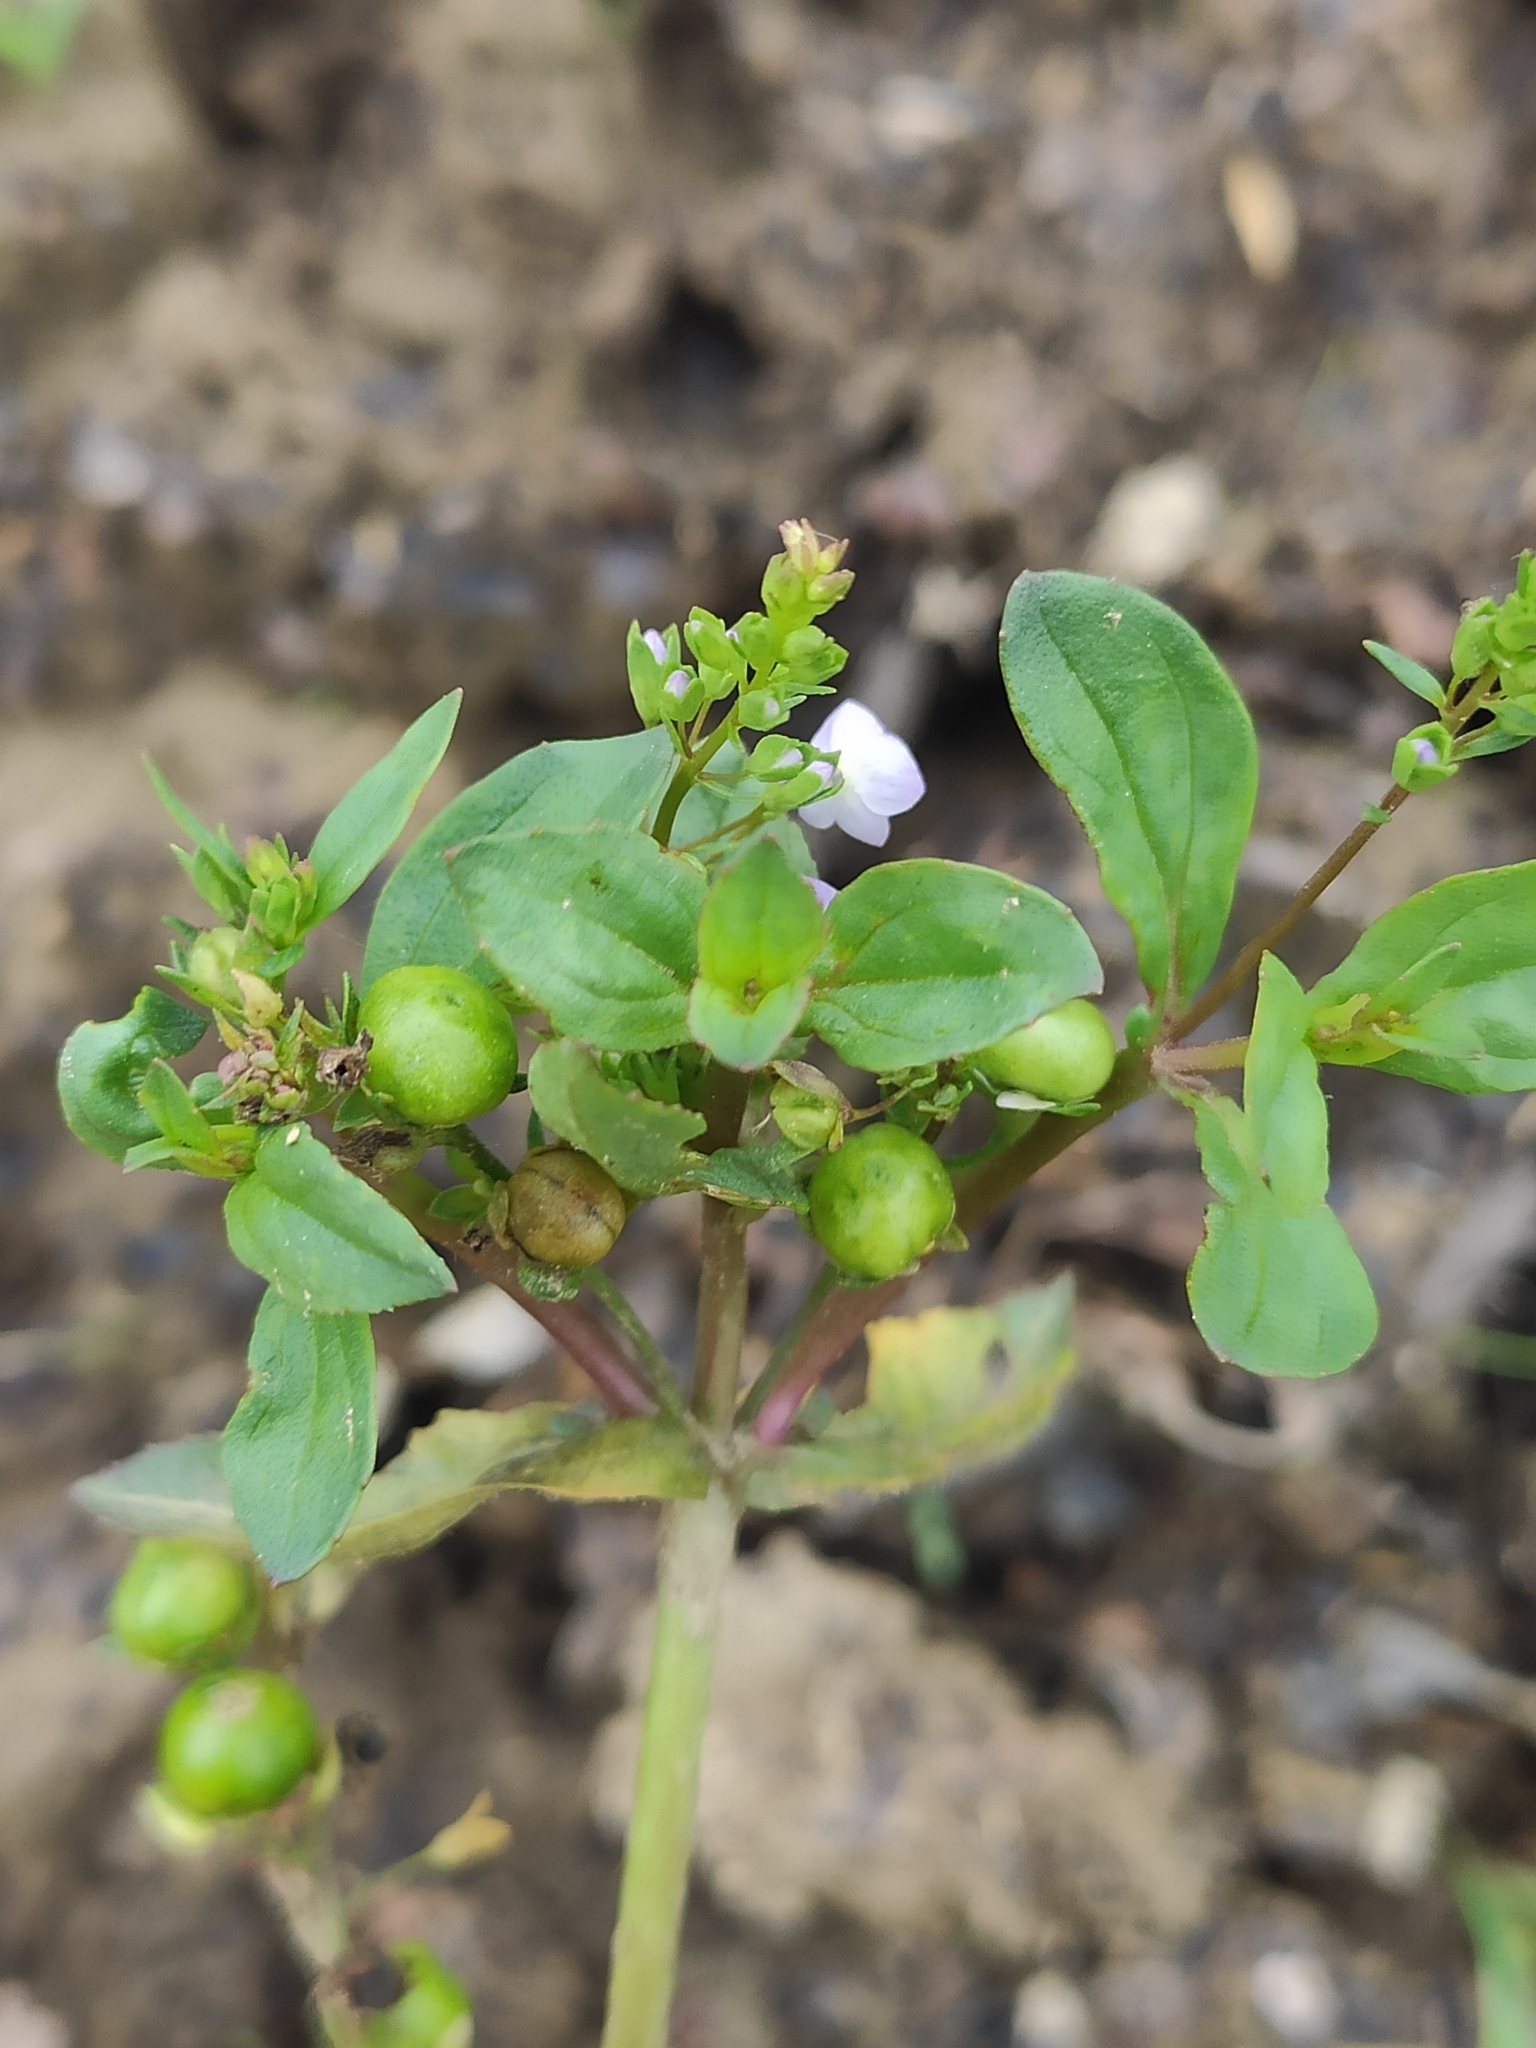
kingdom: Plantae
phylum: Tracheophyta
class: Magnoliopsida
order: Lamiales
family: Plantaginaceae
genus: Veronica
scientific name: Veronica anagallis-aquatica
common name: Water speedwell
